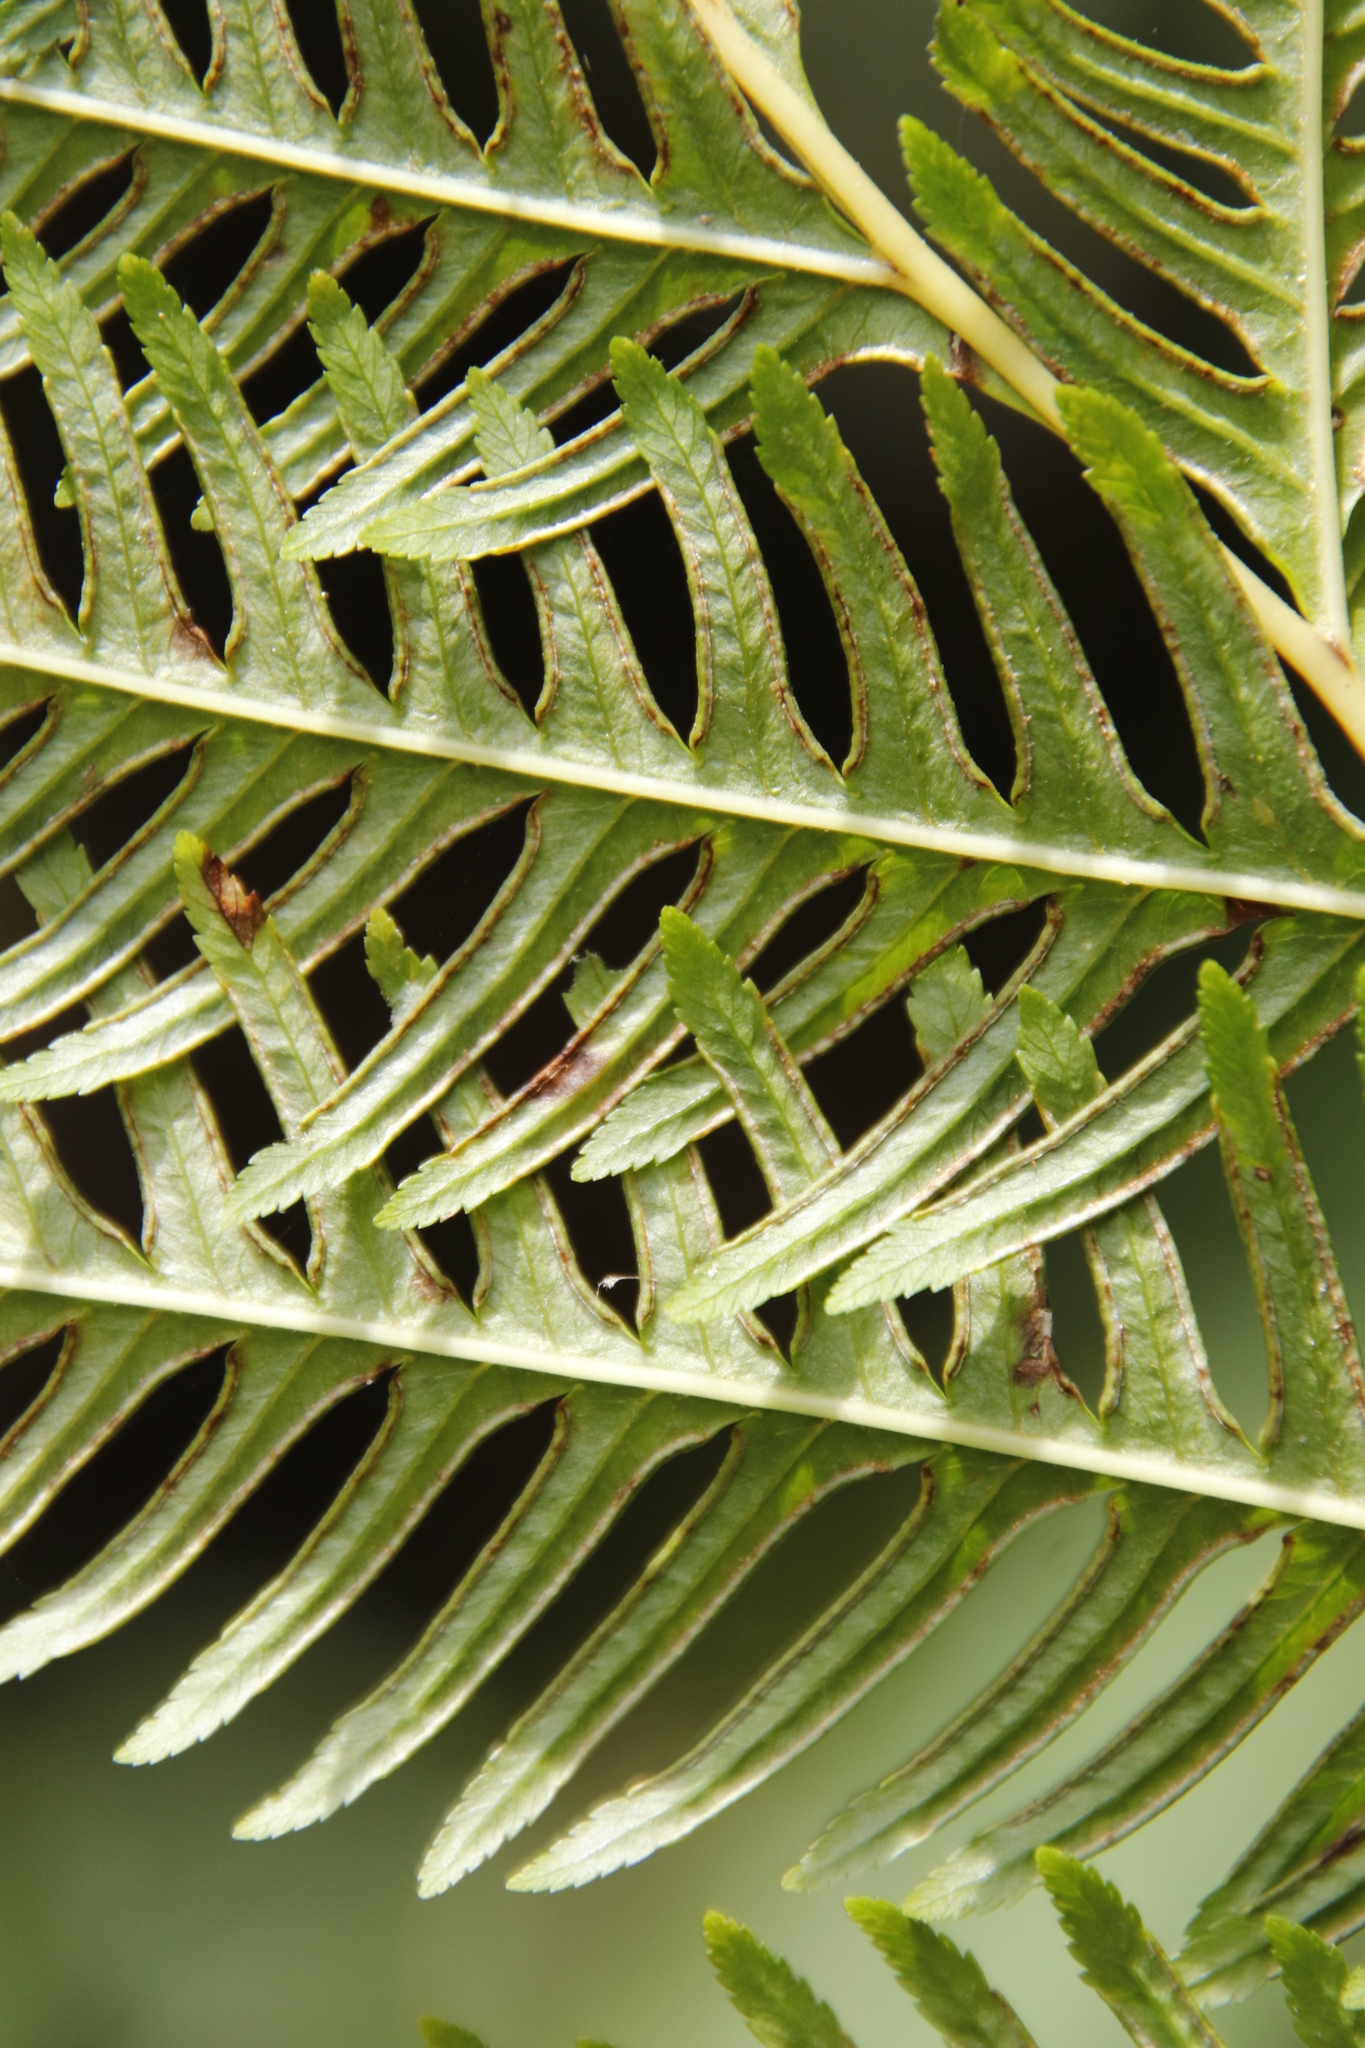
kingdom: Plantae
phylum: Tracheophyta
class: Polypodiopsida
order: Polypodiales
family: Pteridaceae
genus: Pteris
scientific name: Pteris dentata
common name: Toothed brake
